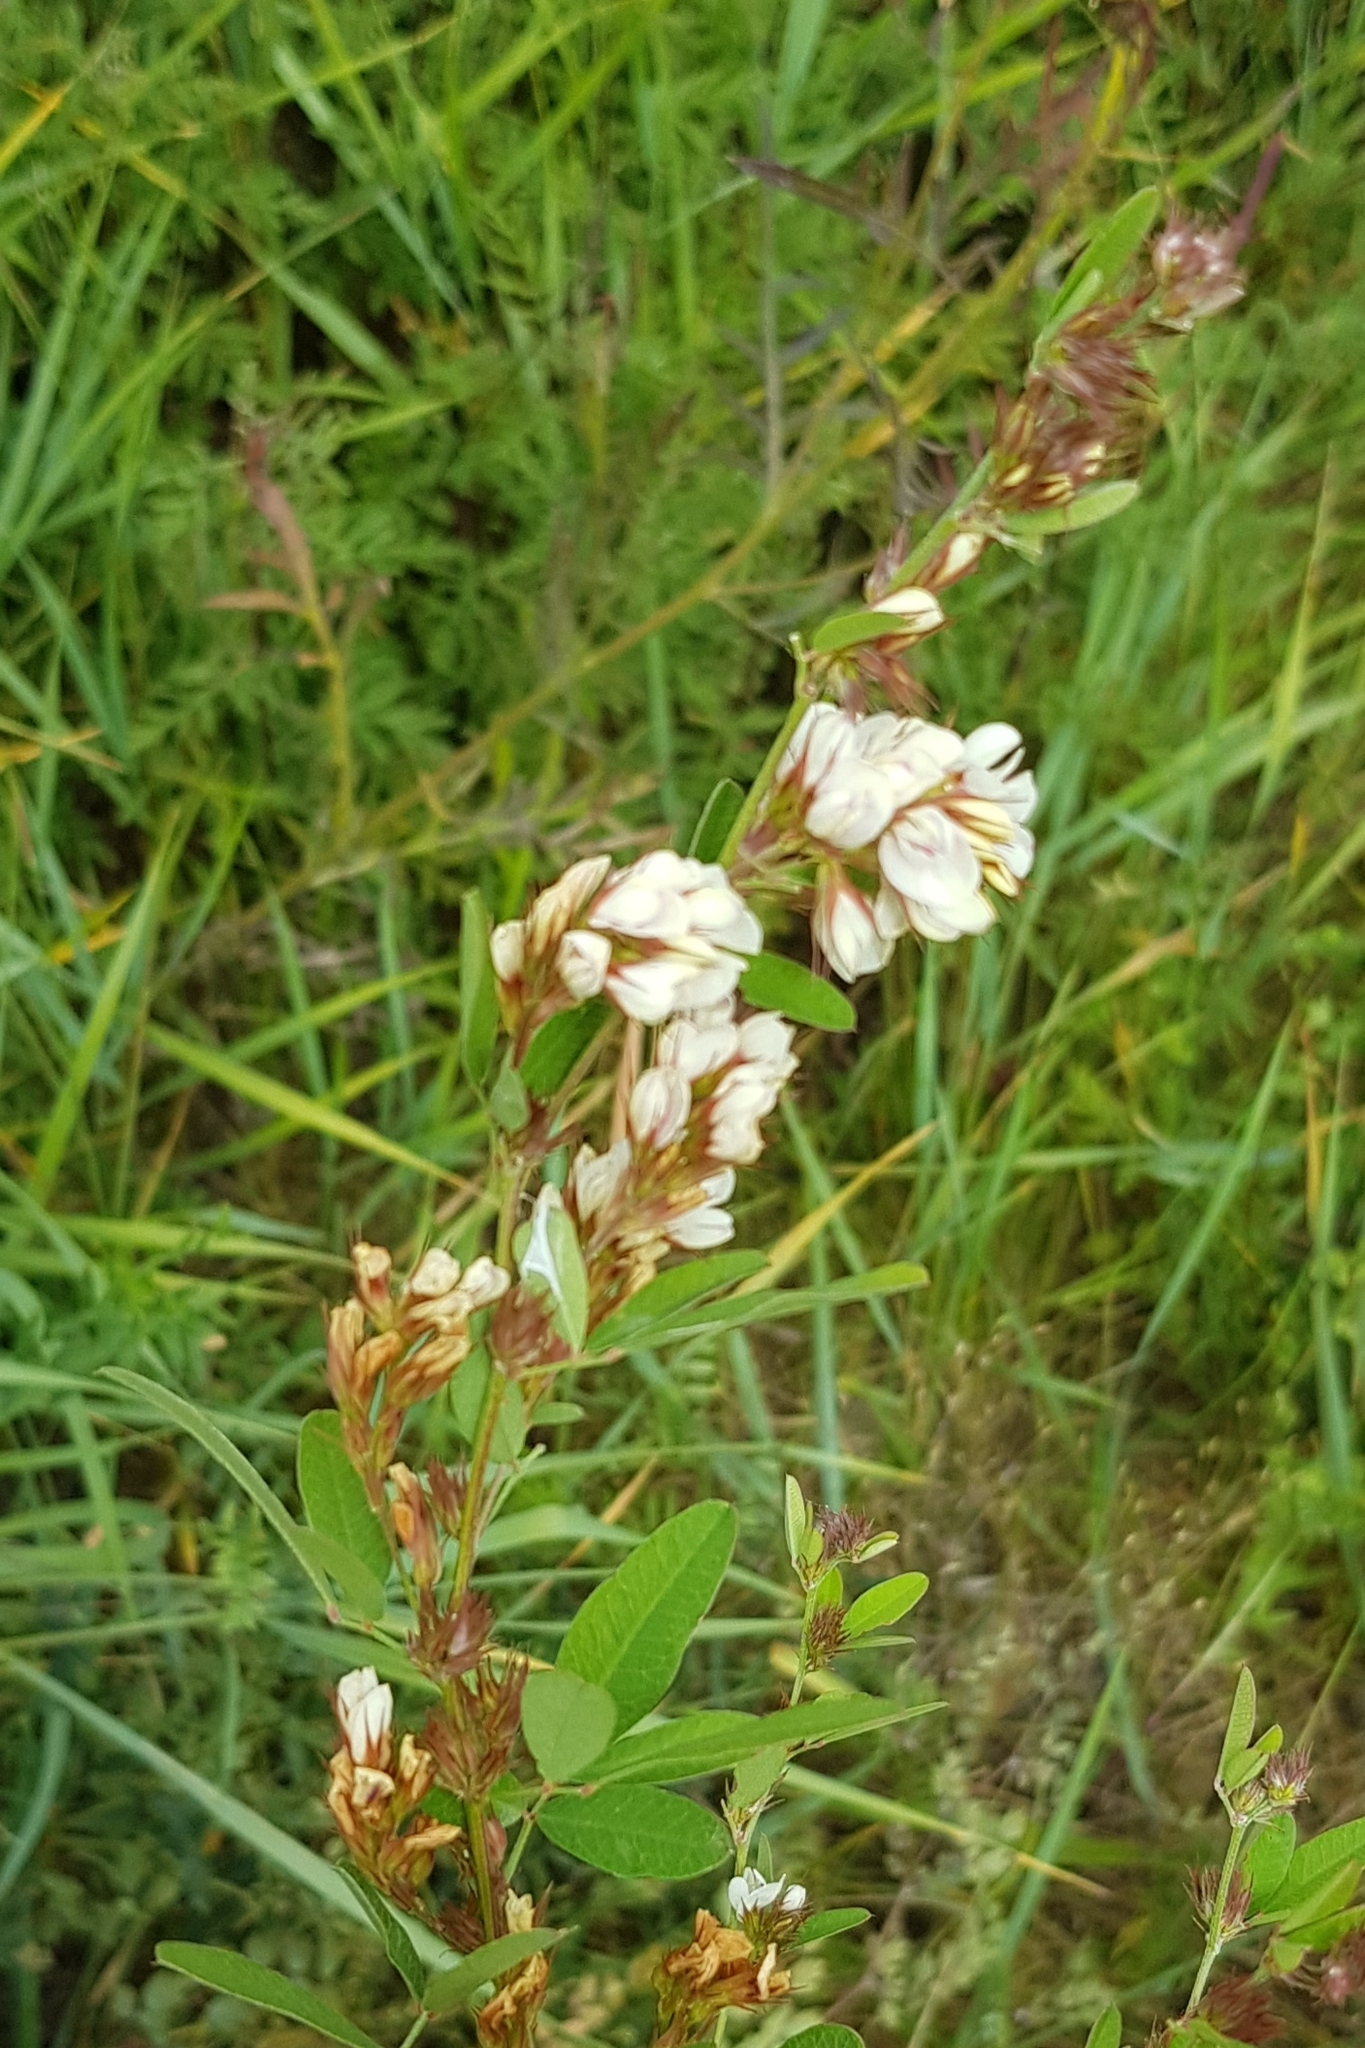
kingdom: Plantae
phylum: Tracheophyta
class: Magnoliopsida
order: Fabales
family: Fabaceae
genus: Lespedeza
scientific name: Lespedeza juncea
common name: Siberian lespedeza
